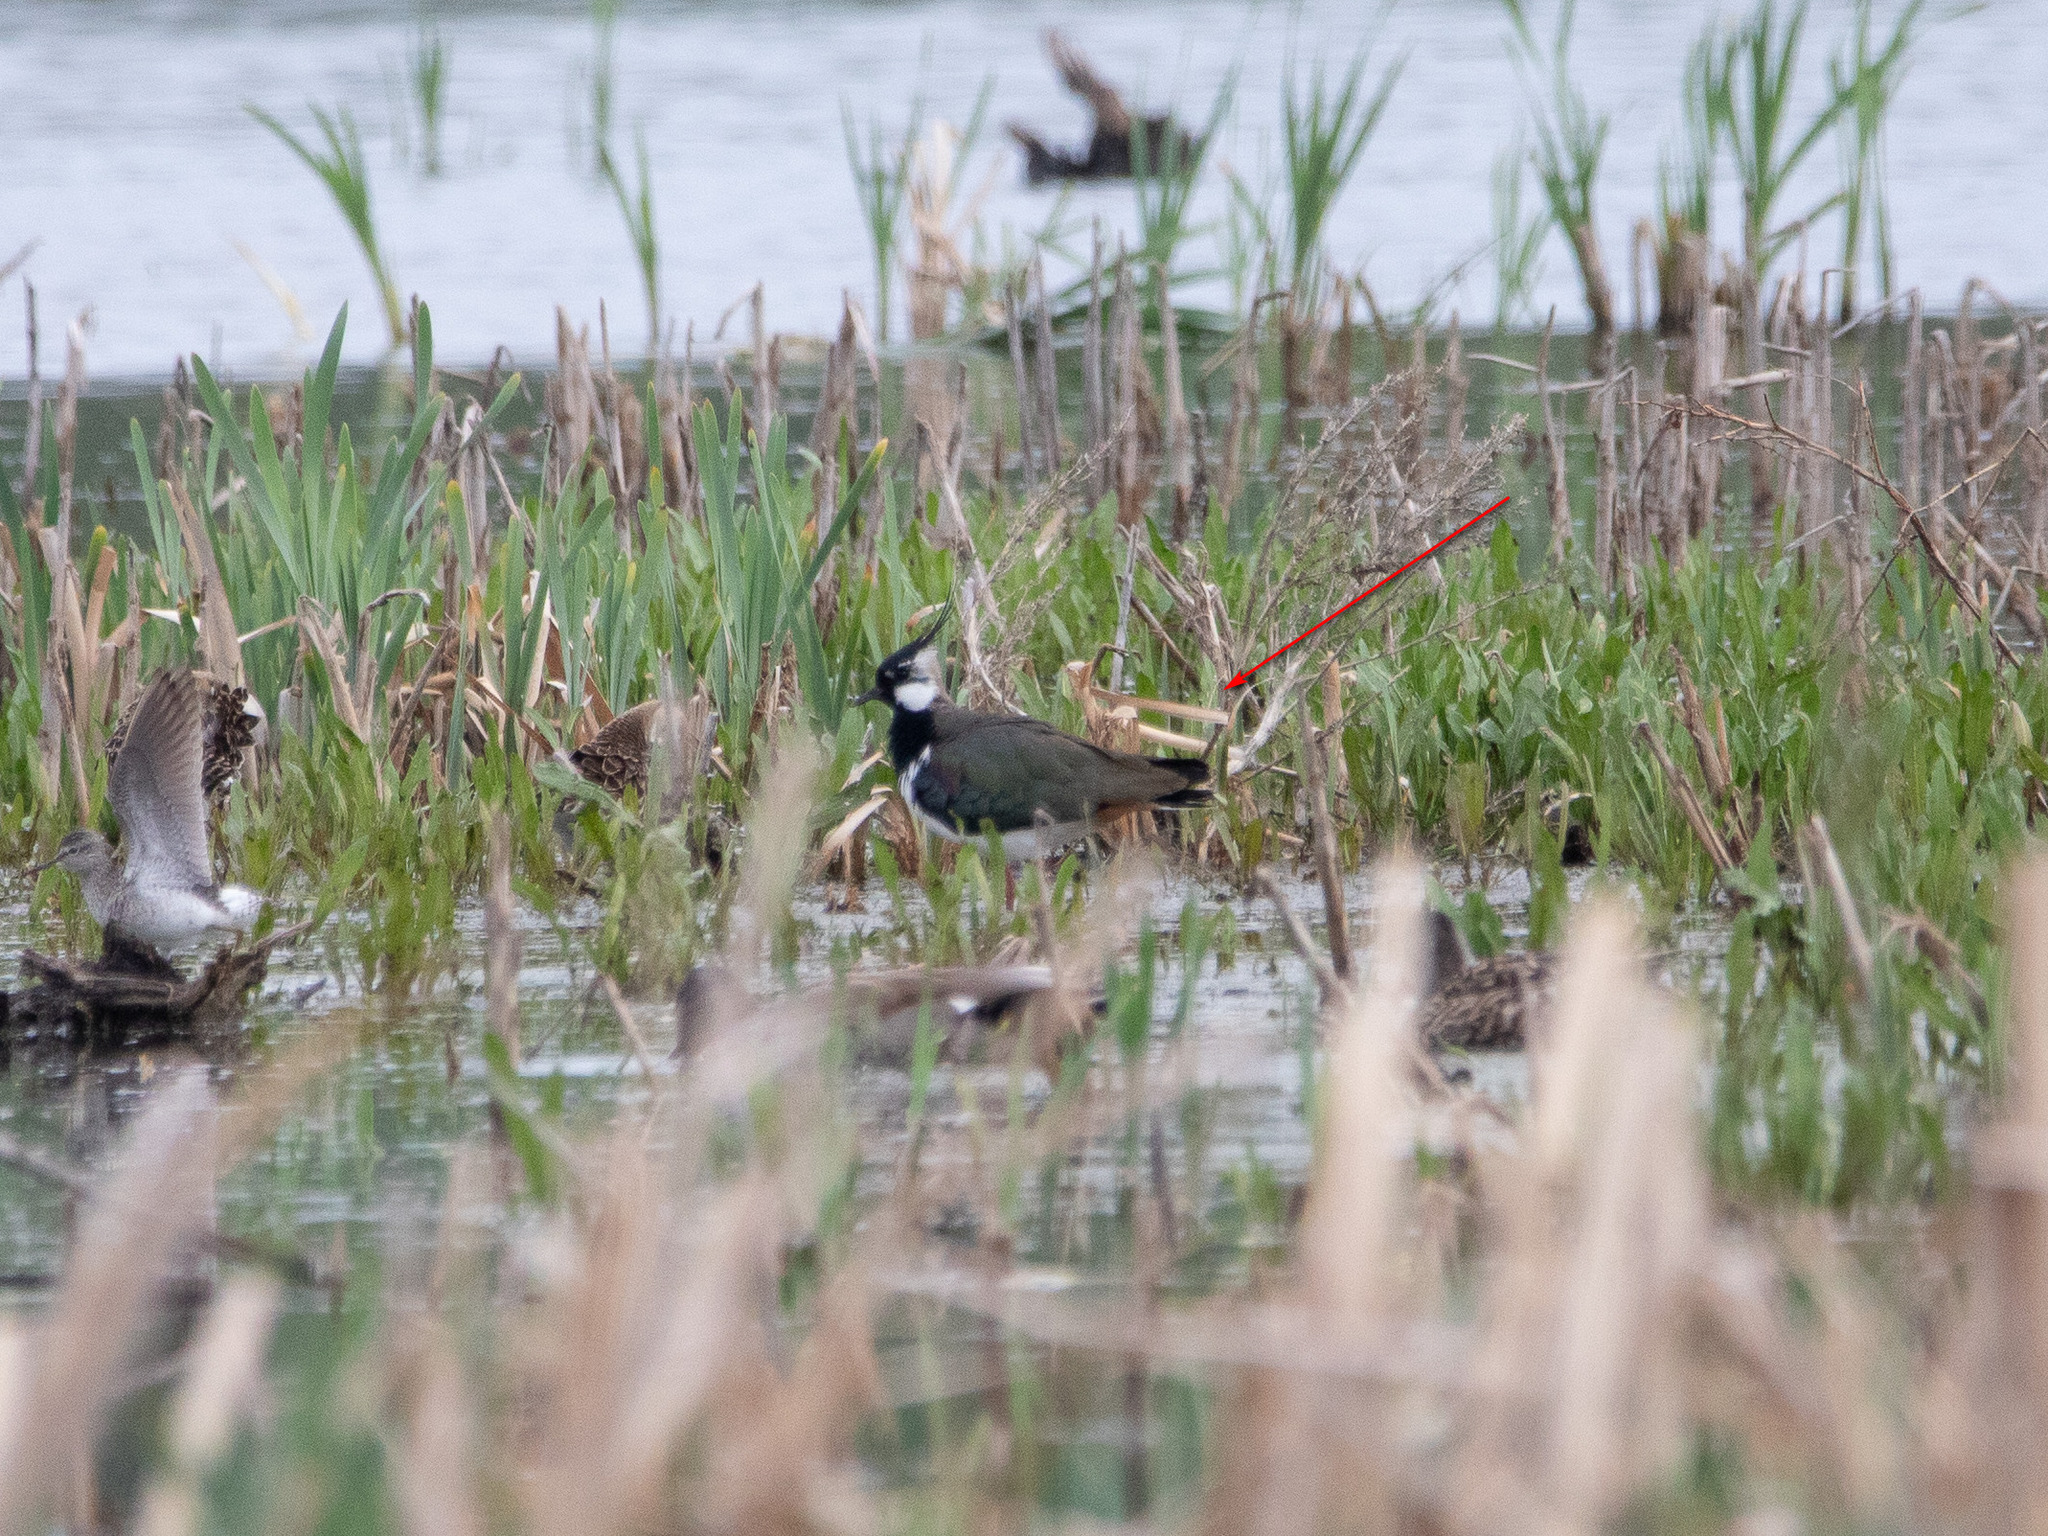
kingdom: Animalia
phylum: Chordata
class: Aves
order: Charadriiformes
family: Charadriidae
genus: Vanellus
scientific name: Vanellus vanellus
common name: Northern lapwing
